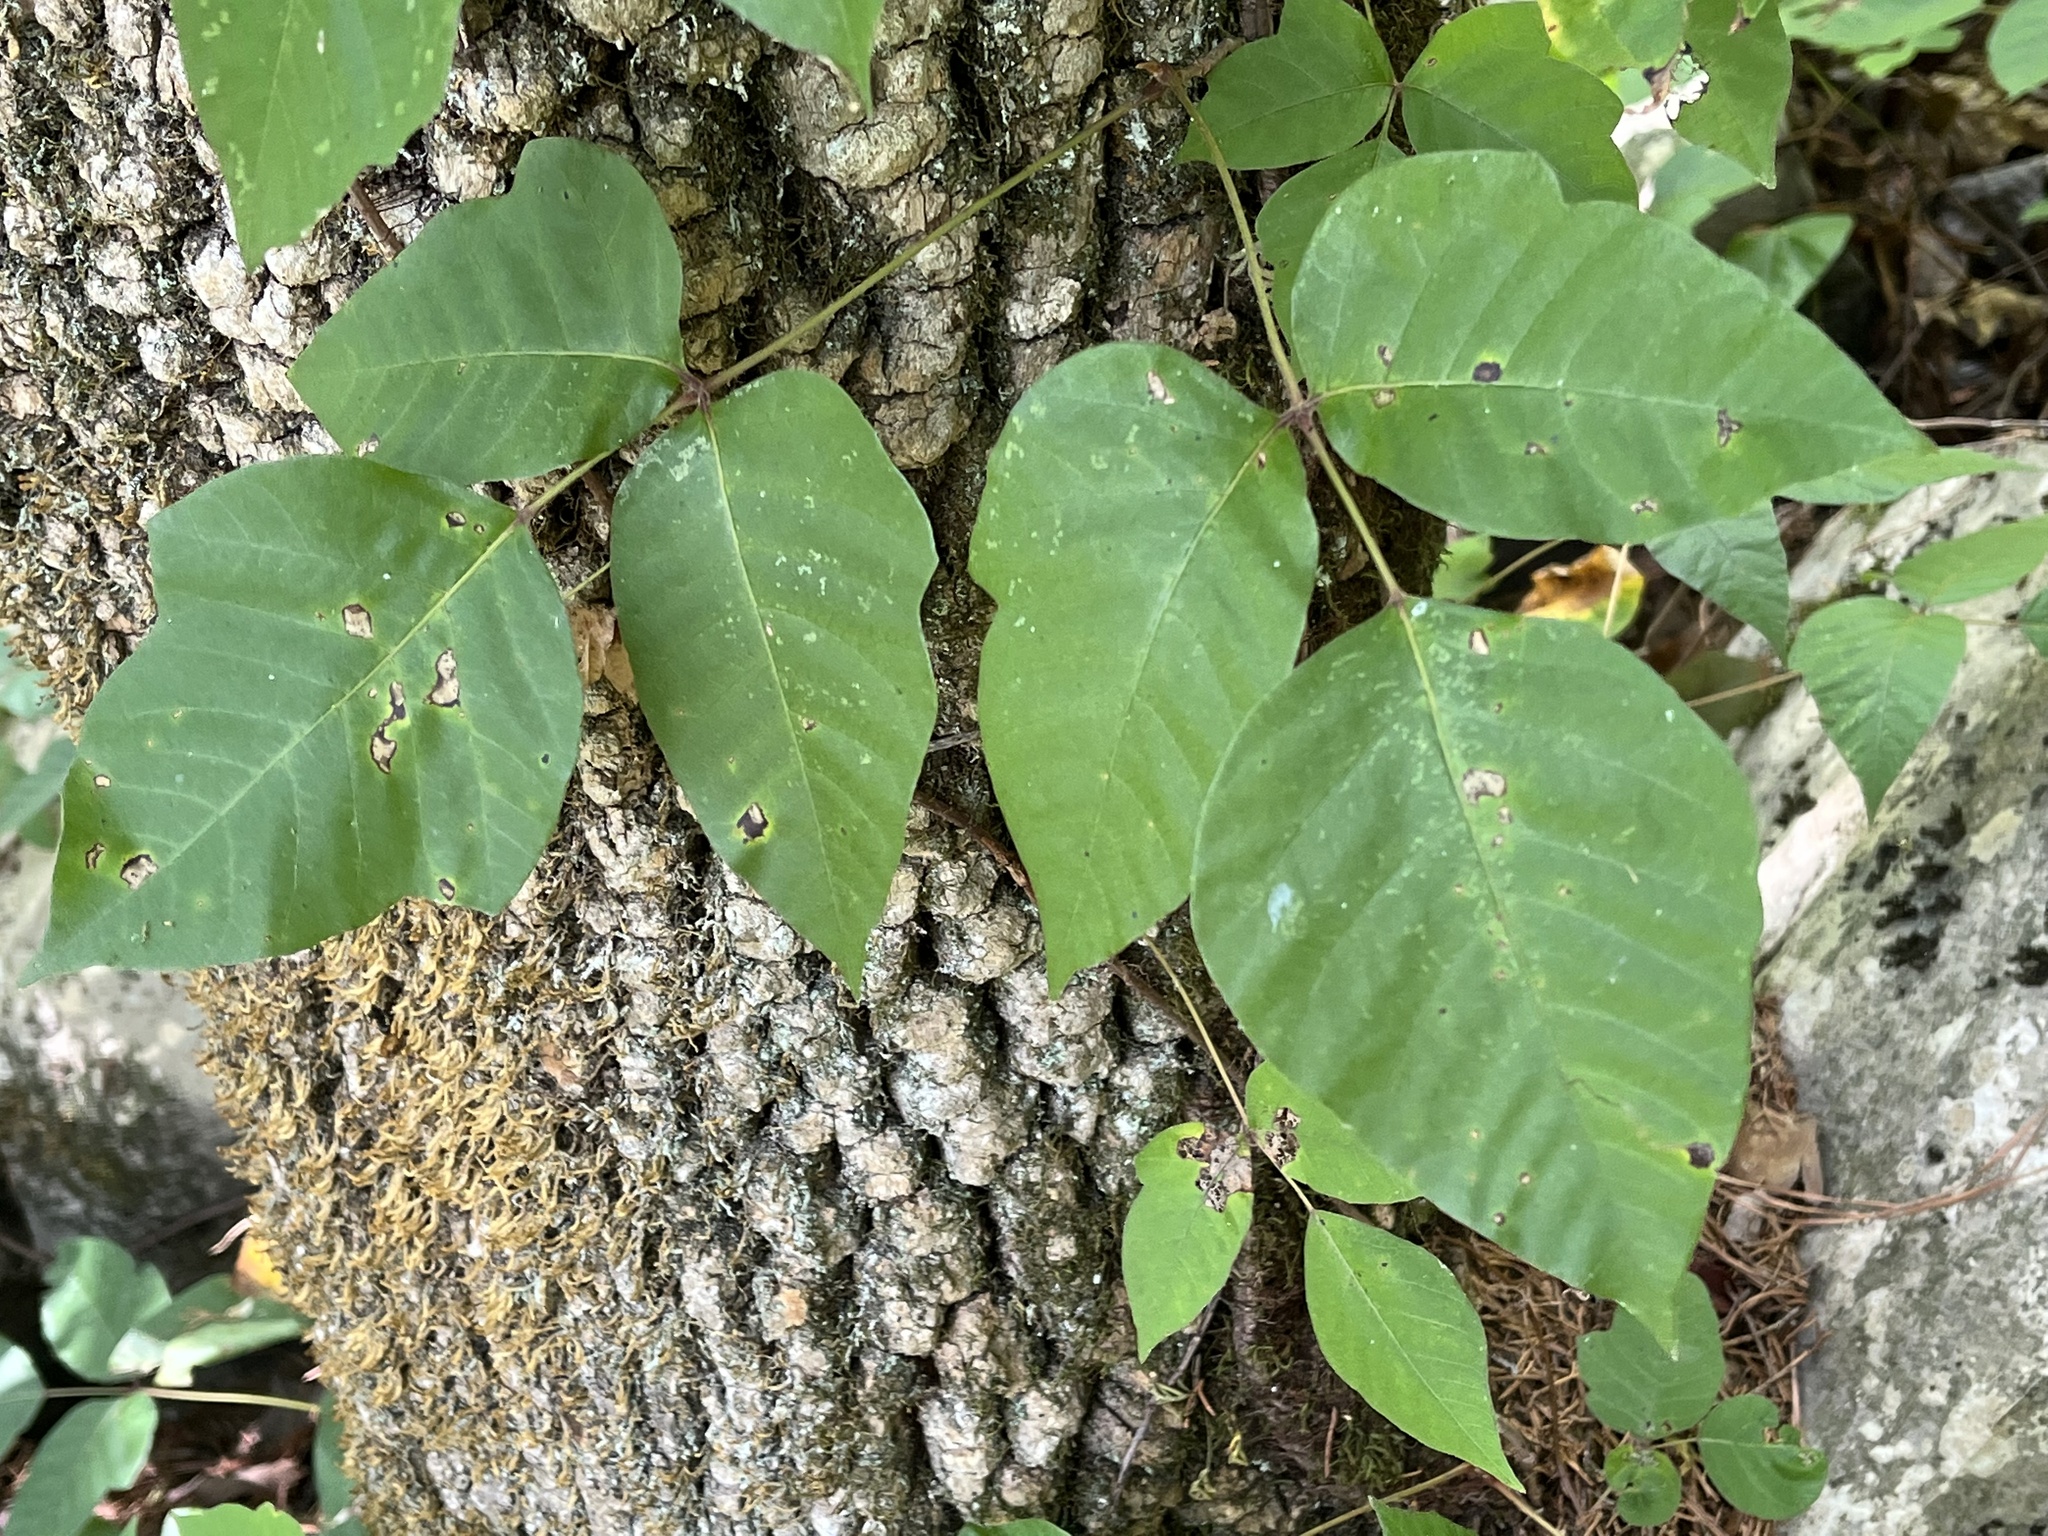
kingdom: Plantae
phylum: Tracheophyta
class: Magnoliopsida
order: Sapindales
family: Anacardiaceae
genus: Toxicodendron
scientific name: Toxicodendron radicans
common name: Poison ivy
